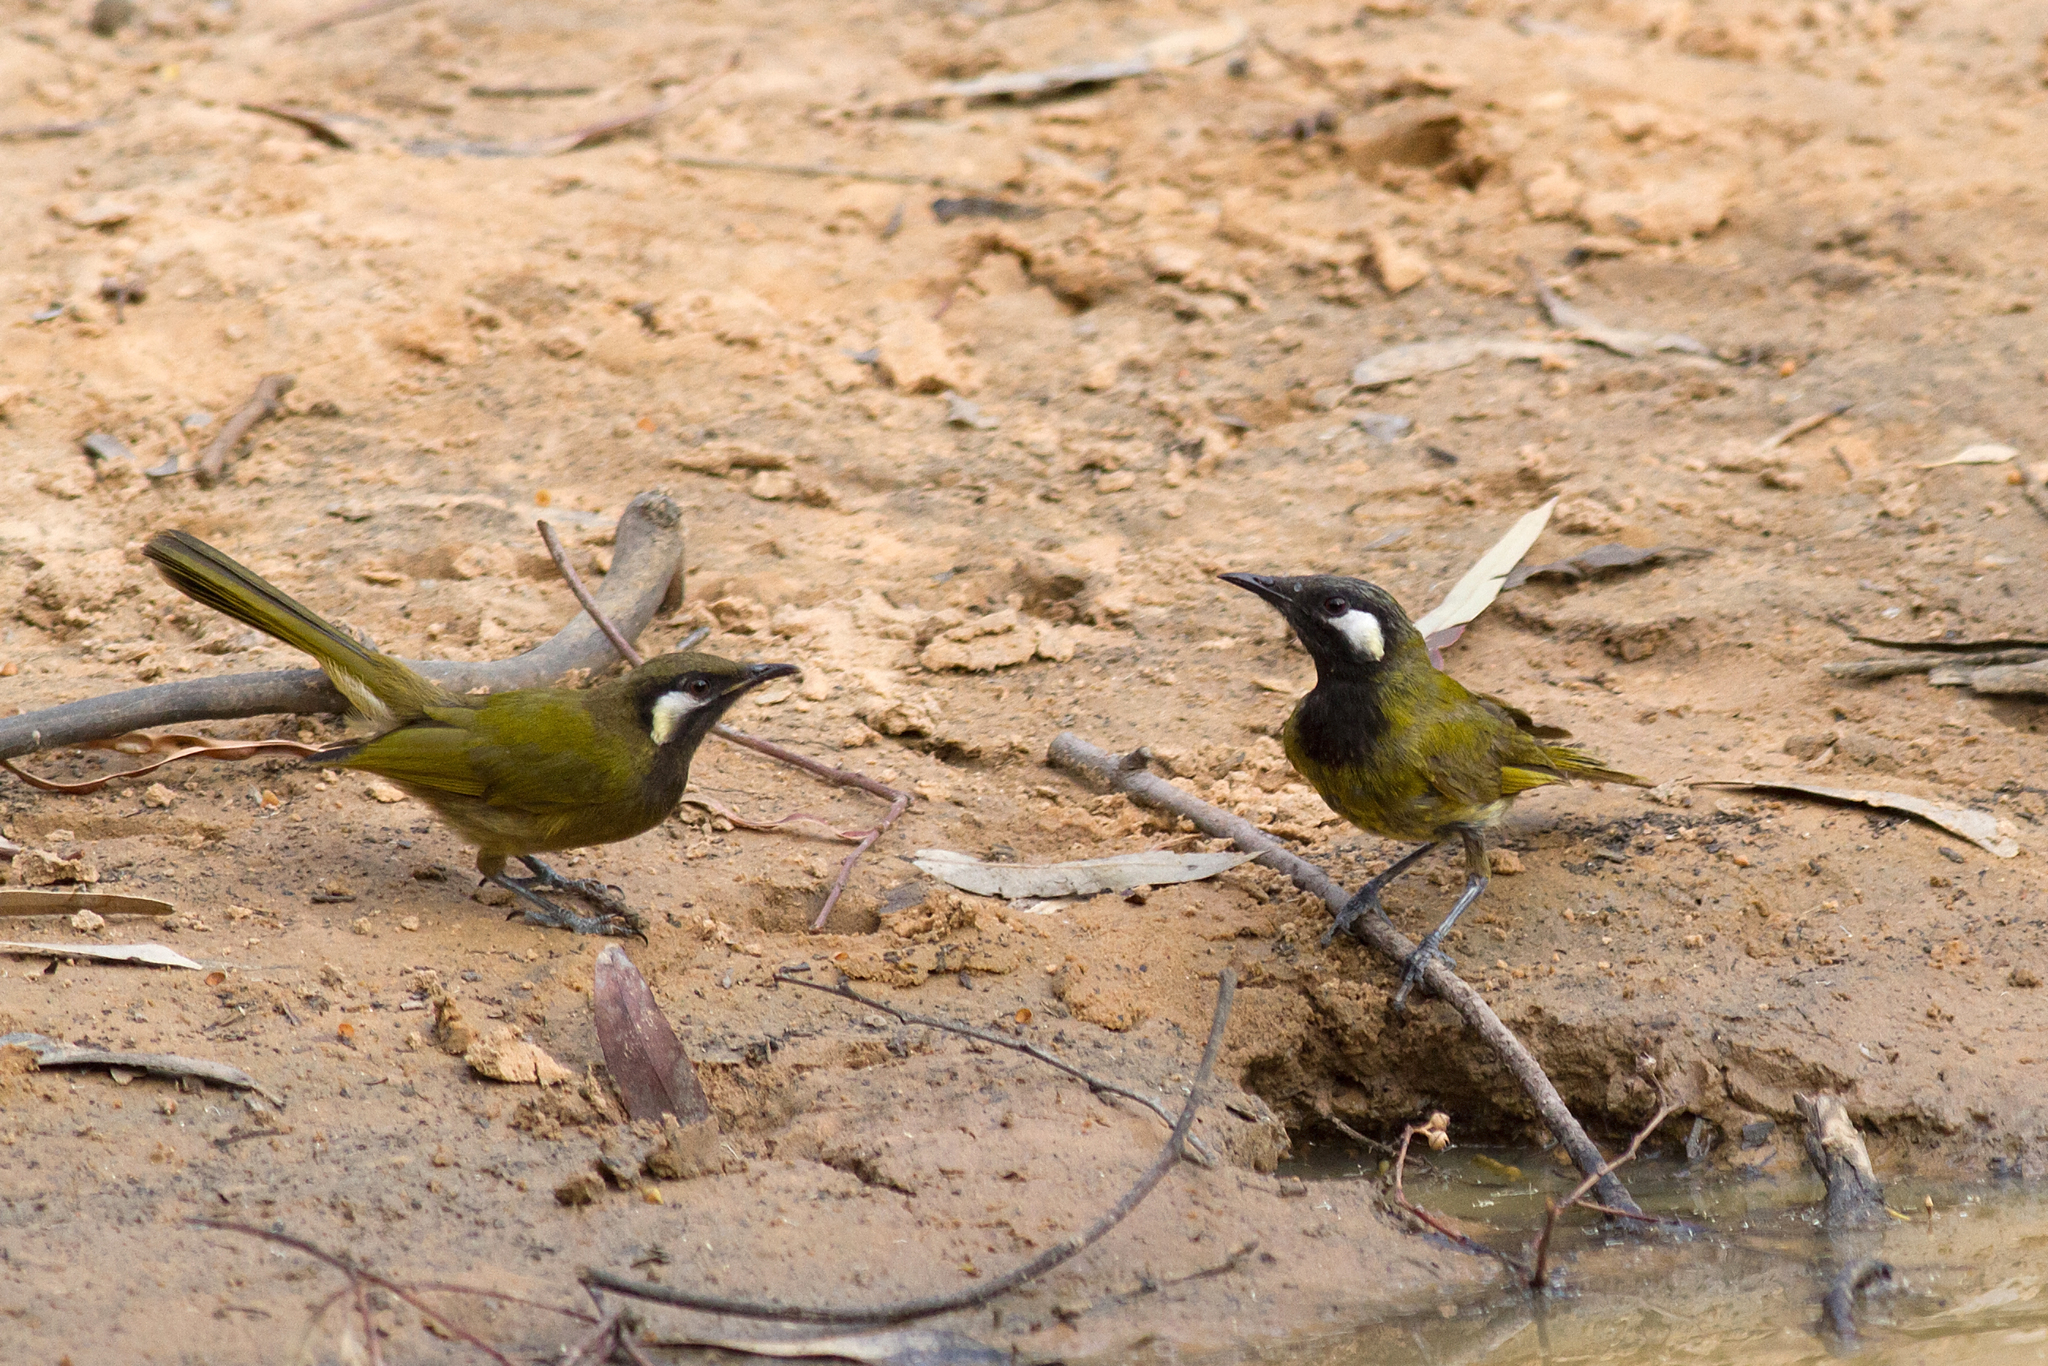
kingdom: Animalia
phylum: Chordata
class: Aves
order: Passeriformes
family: Meliphagidae
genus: Nesoptilotis
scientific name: Nesoptilotis leucotis
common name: White-eared honeyeater
